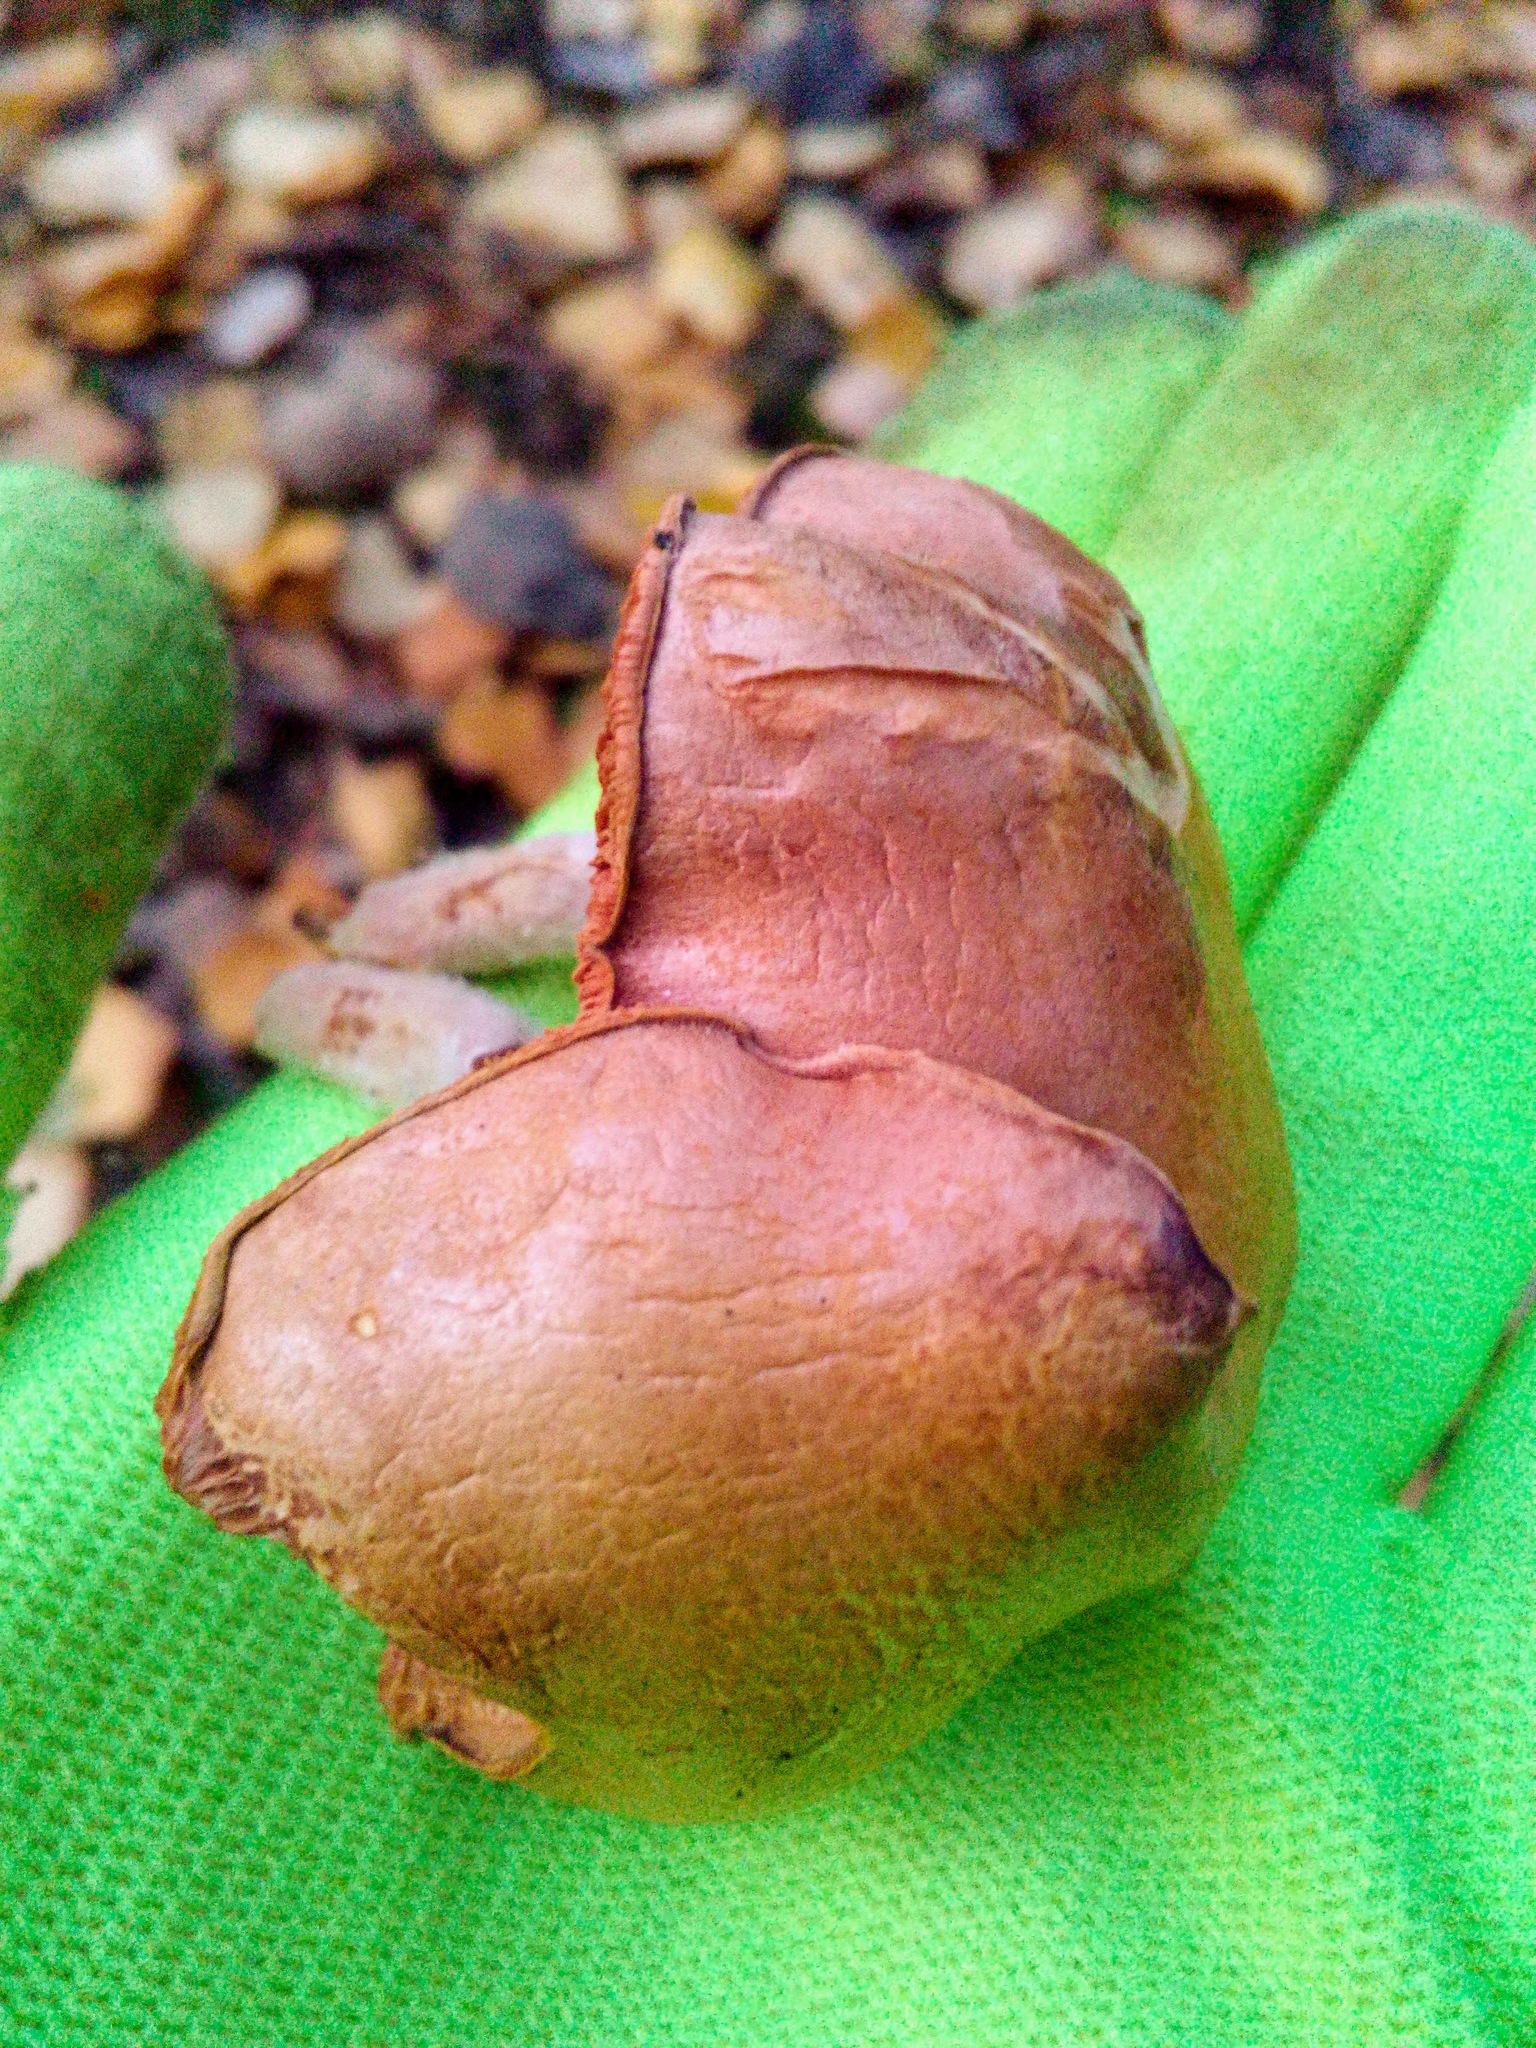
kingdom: Fungi
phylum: Basidiomycota
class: Agaricomycetes
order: Boletales
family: Boletaceae
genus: Chalciporus
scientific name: Chalciporus piperatus
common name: Peppery bolete
